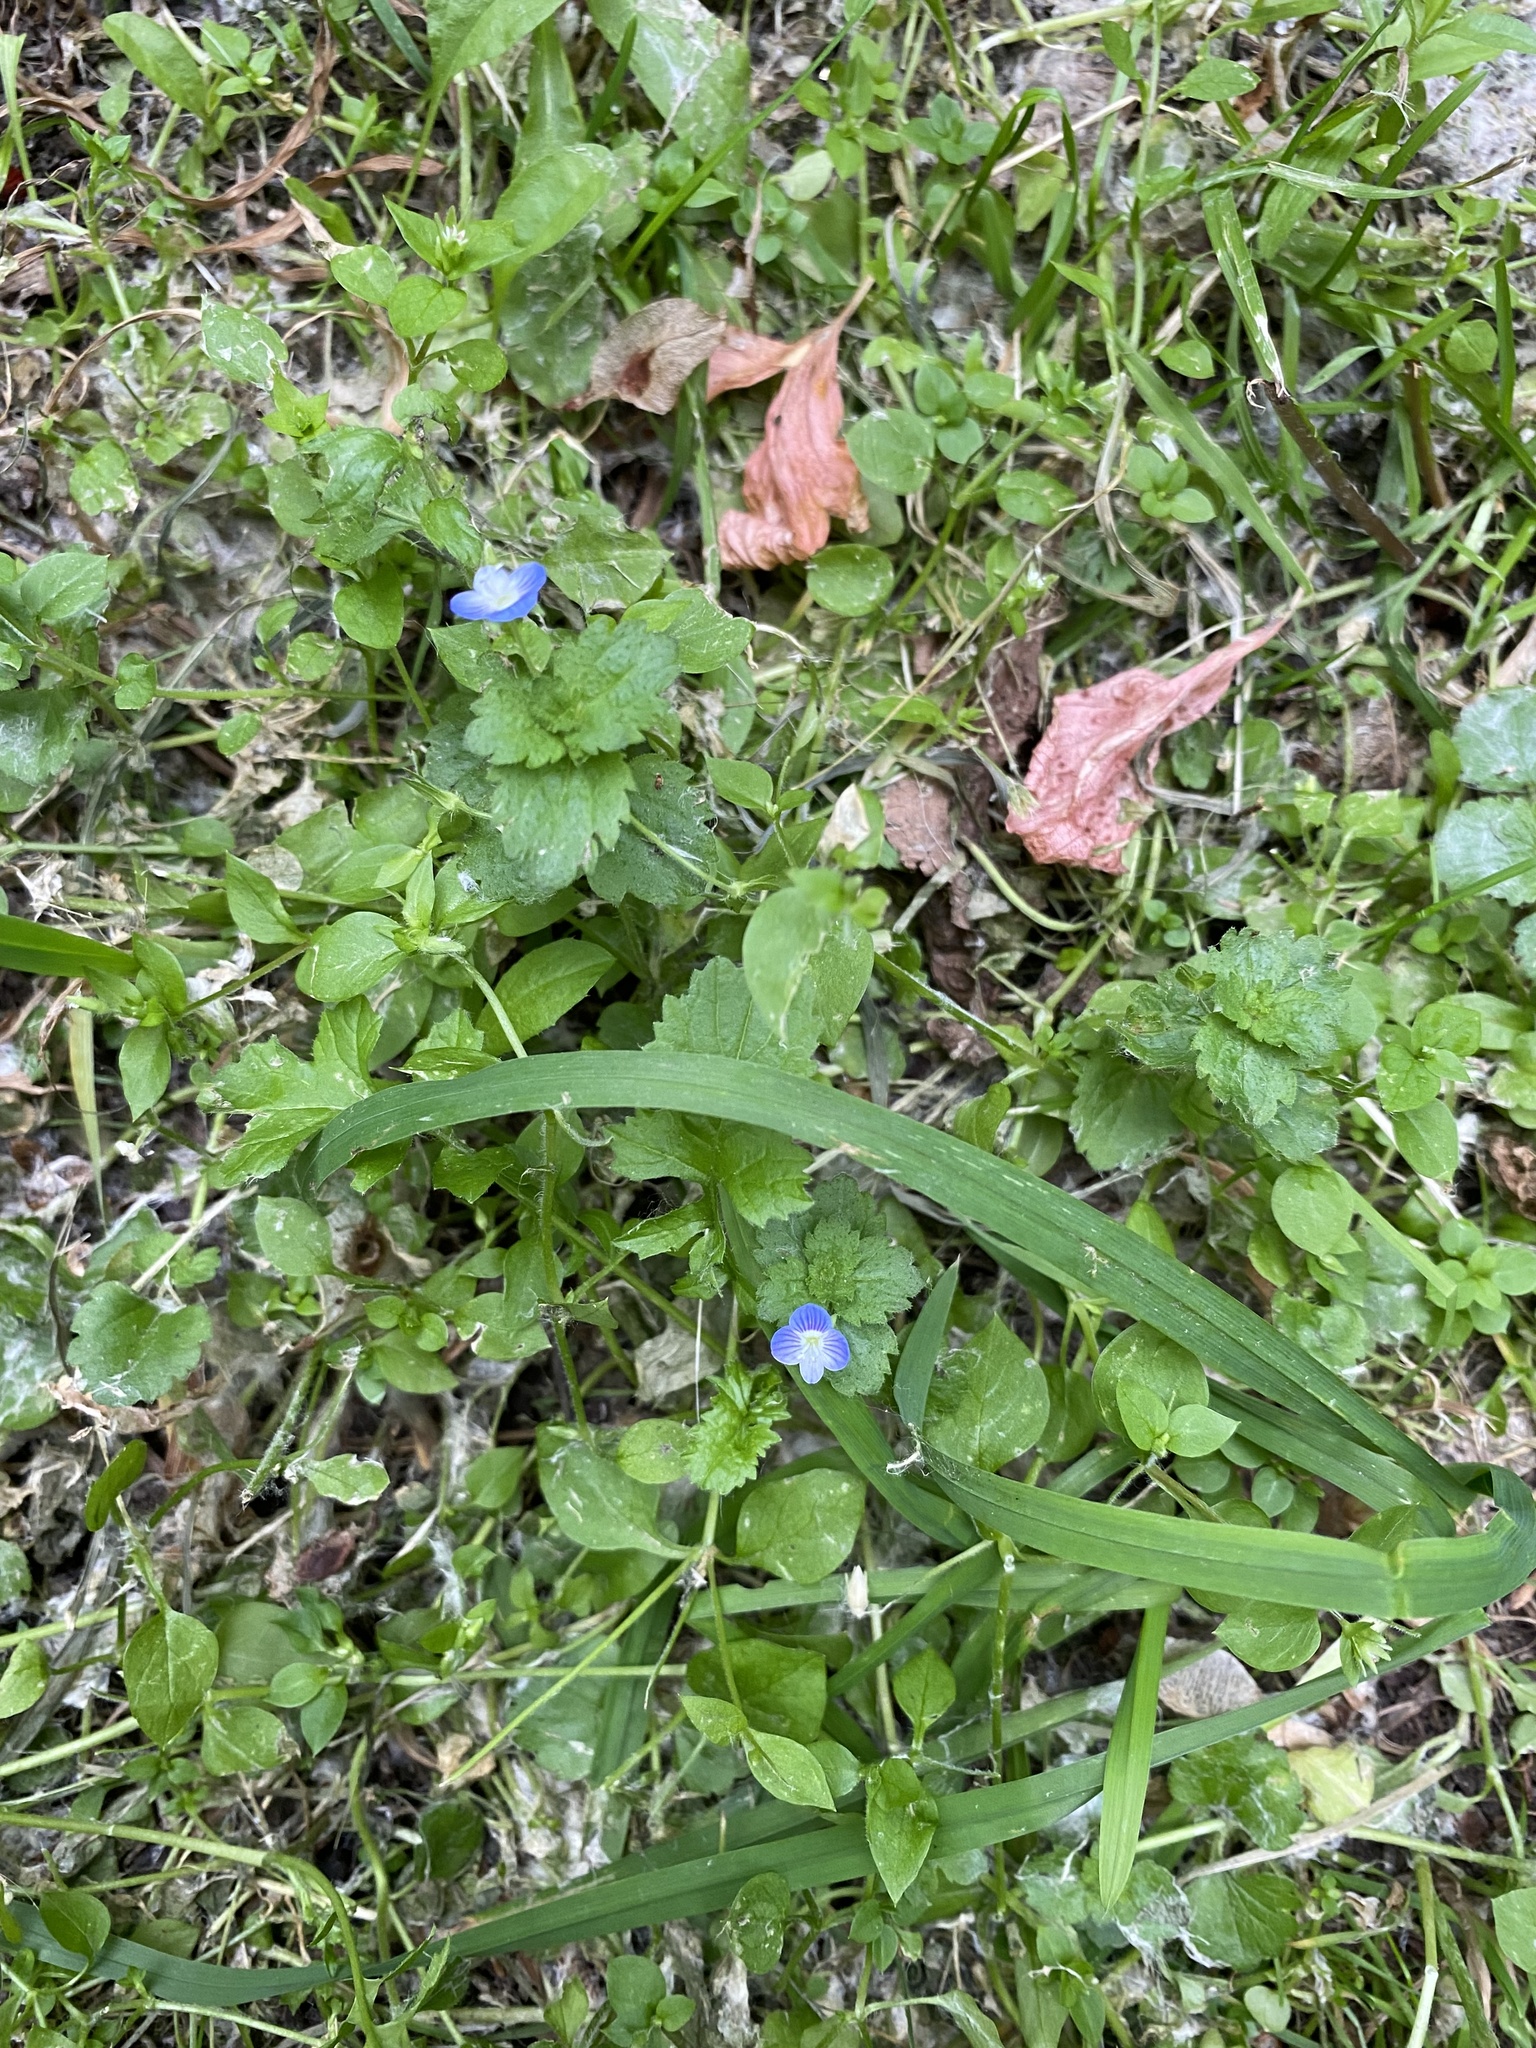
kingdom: Plantae
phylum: Tracheophyta
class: Magnoliopsida
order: Lamiales
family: Plantaginaceae
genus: Veronica
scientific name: Veronica persica
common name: Common field-speedwell
